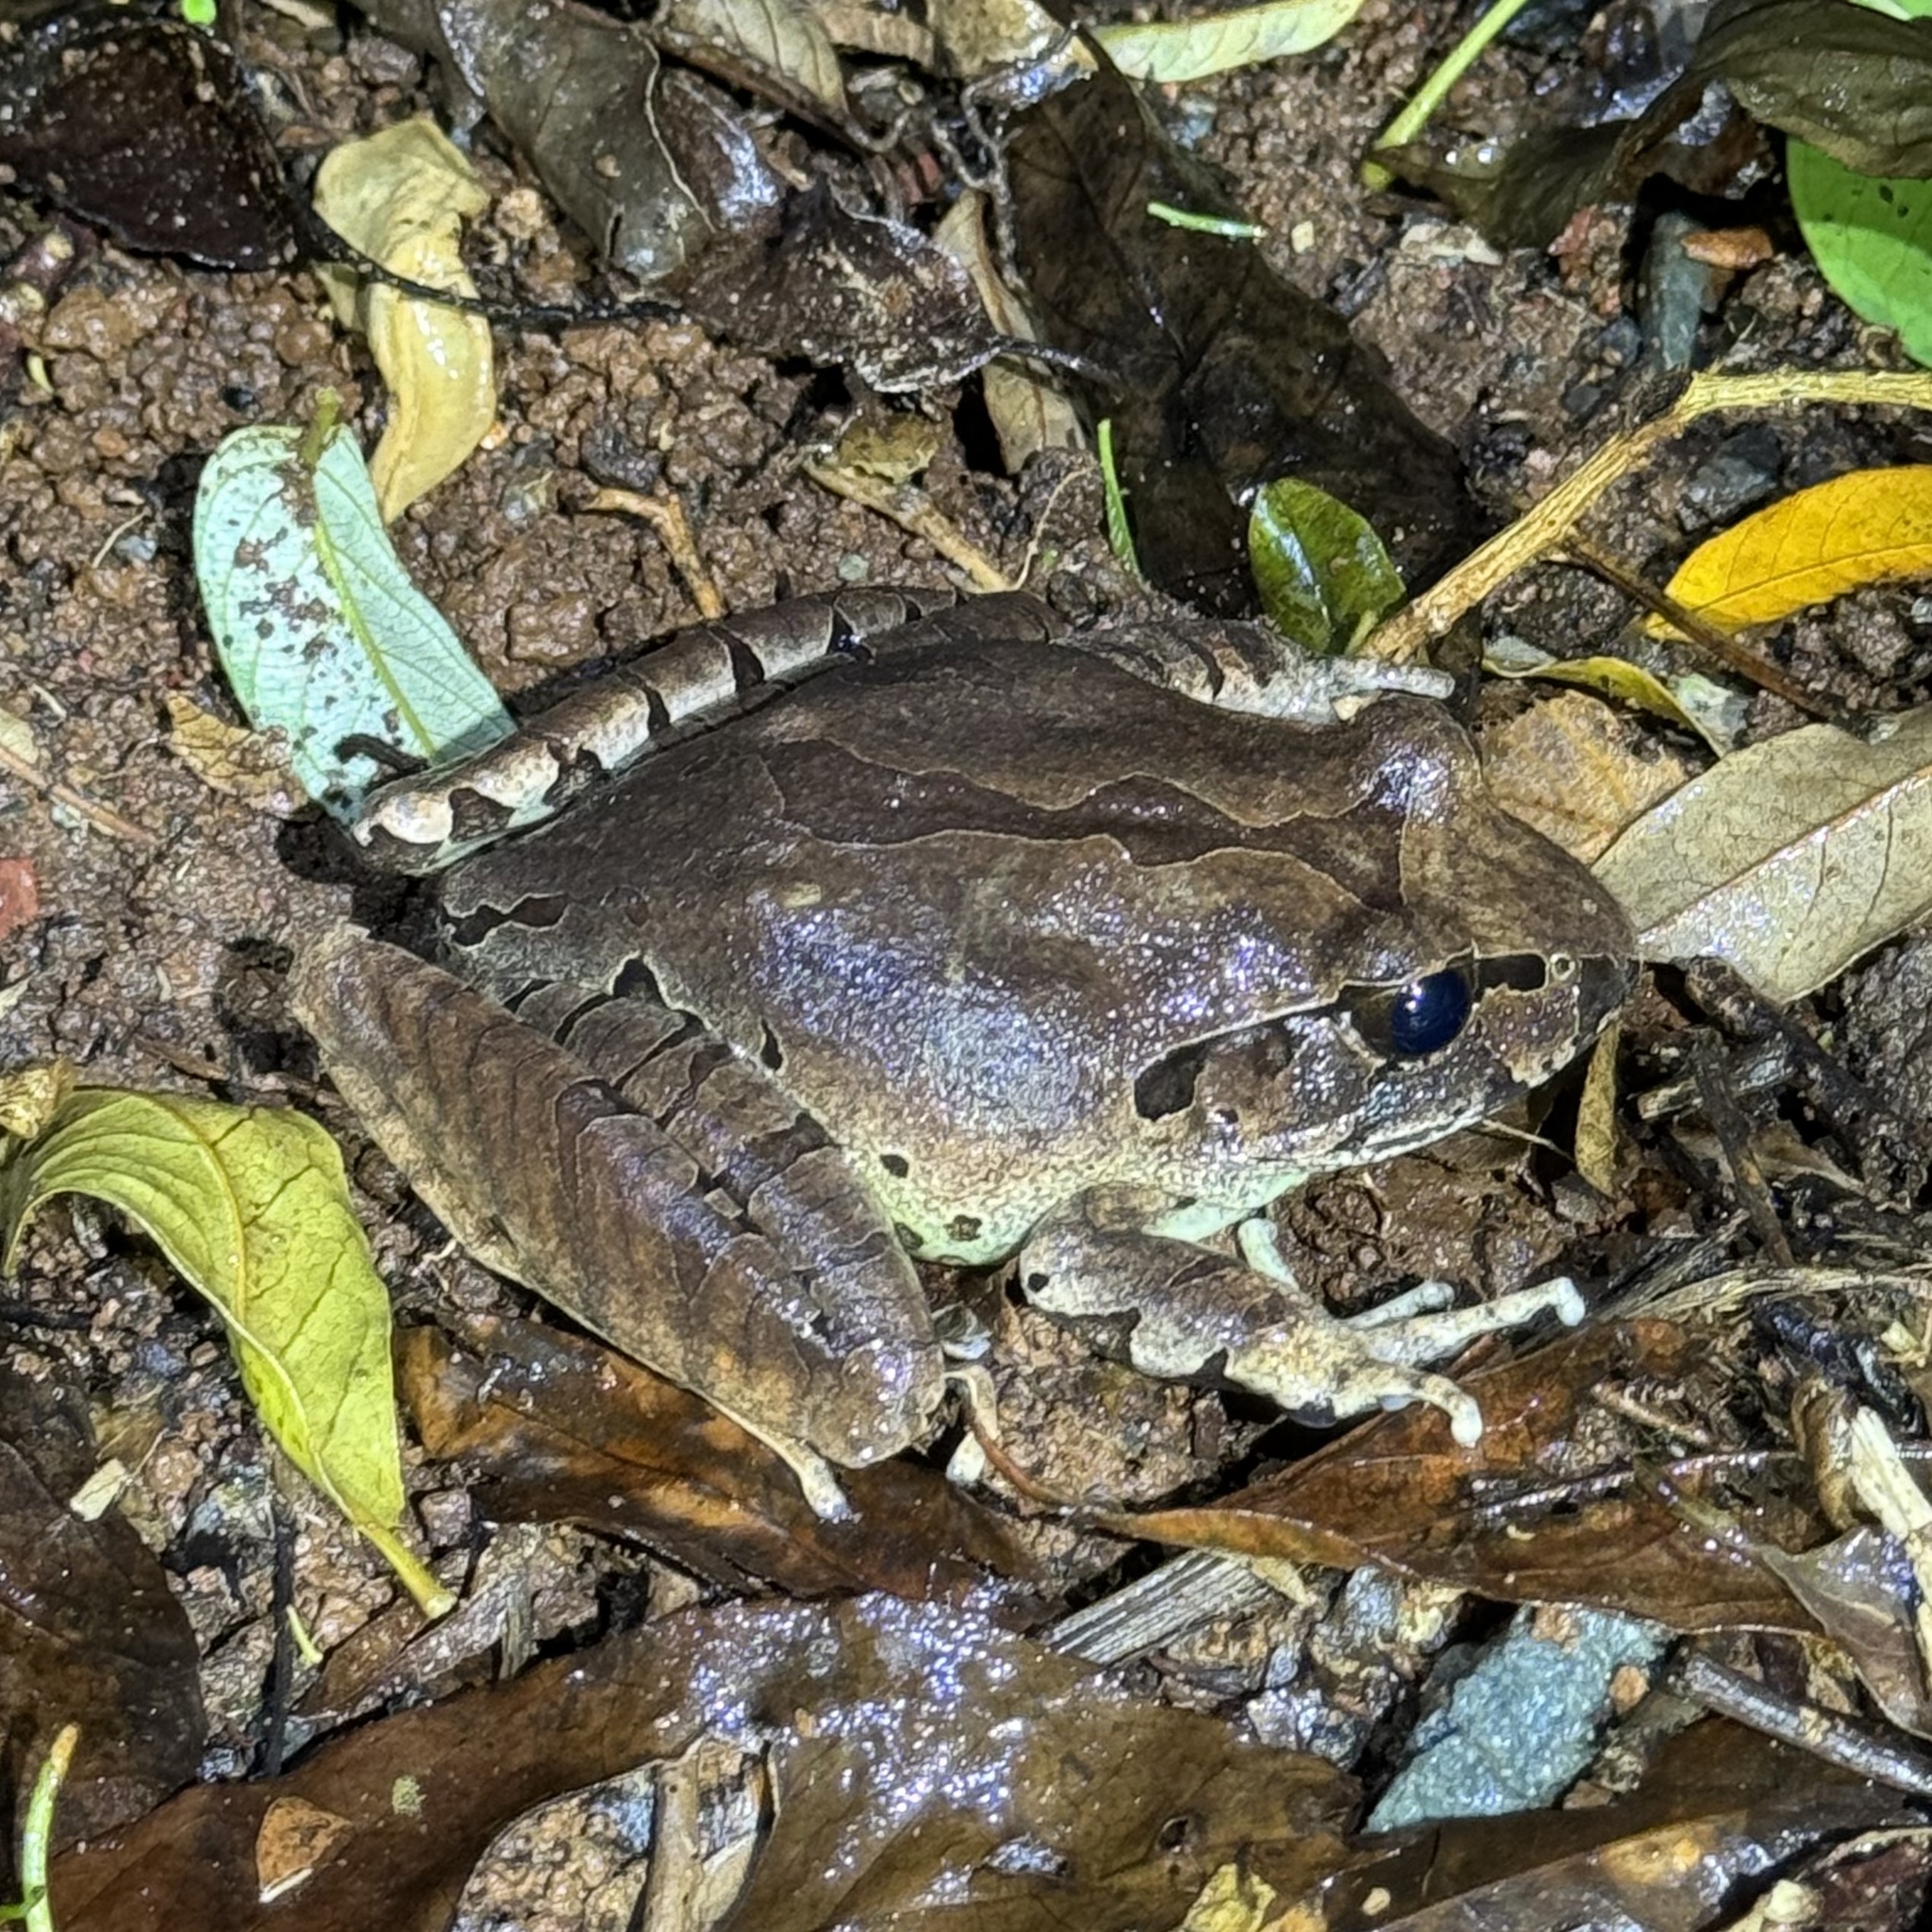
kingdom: Animalia
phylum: Chordata
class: Amphibia
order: Anura
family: Myobatrachidae
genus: Mixophyes
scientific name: Mixophyes fleayi
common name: Fleay’s barred-frog
